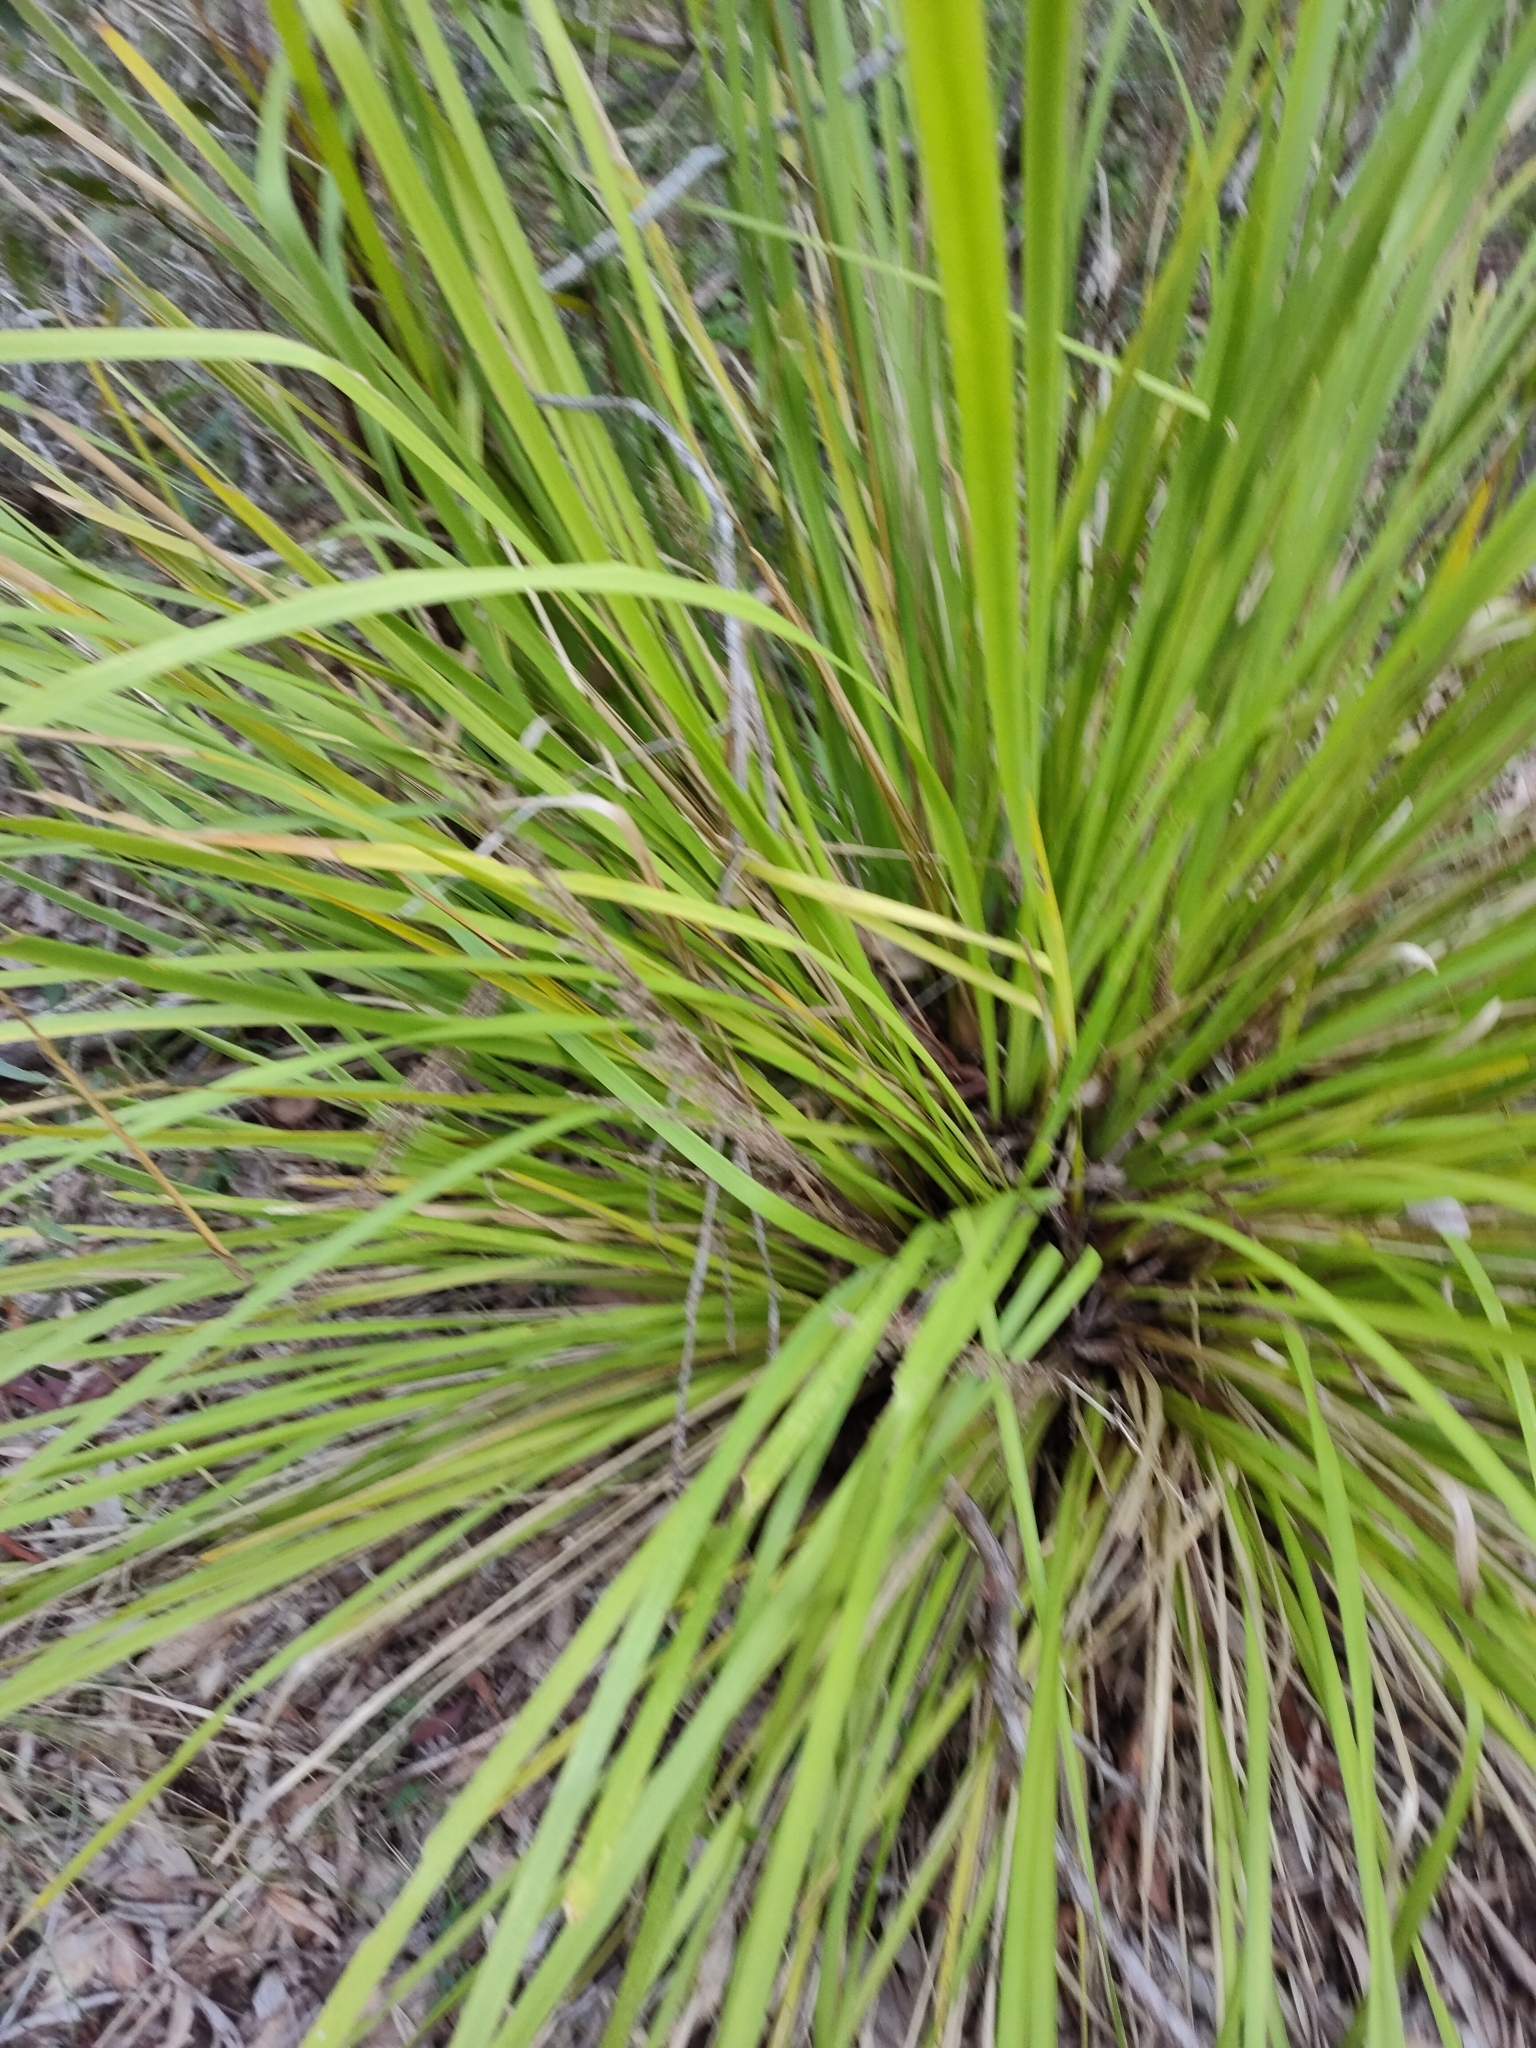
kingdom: Plantae
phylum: Tracheophyta
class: Liliopsida
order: Asparagales
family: Asparagaceae
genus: Lomandra
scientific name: Lomandra longifolia
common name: Longleaf mat-rush
